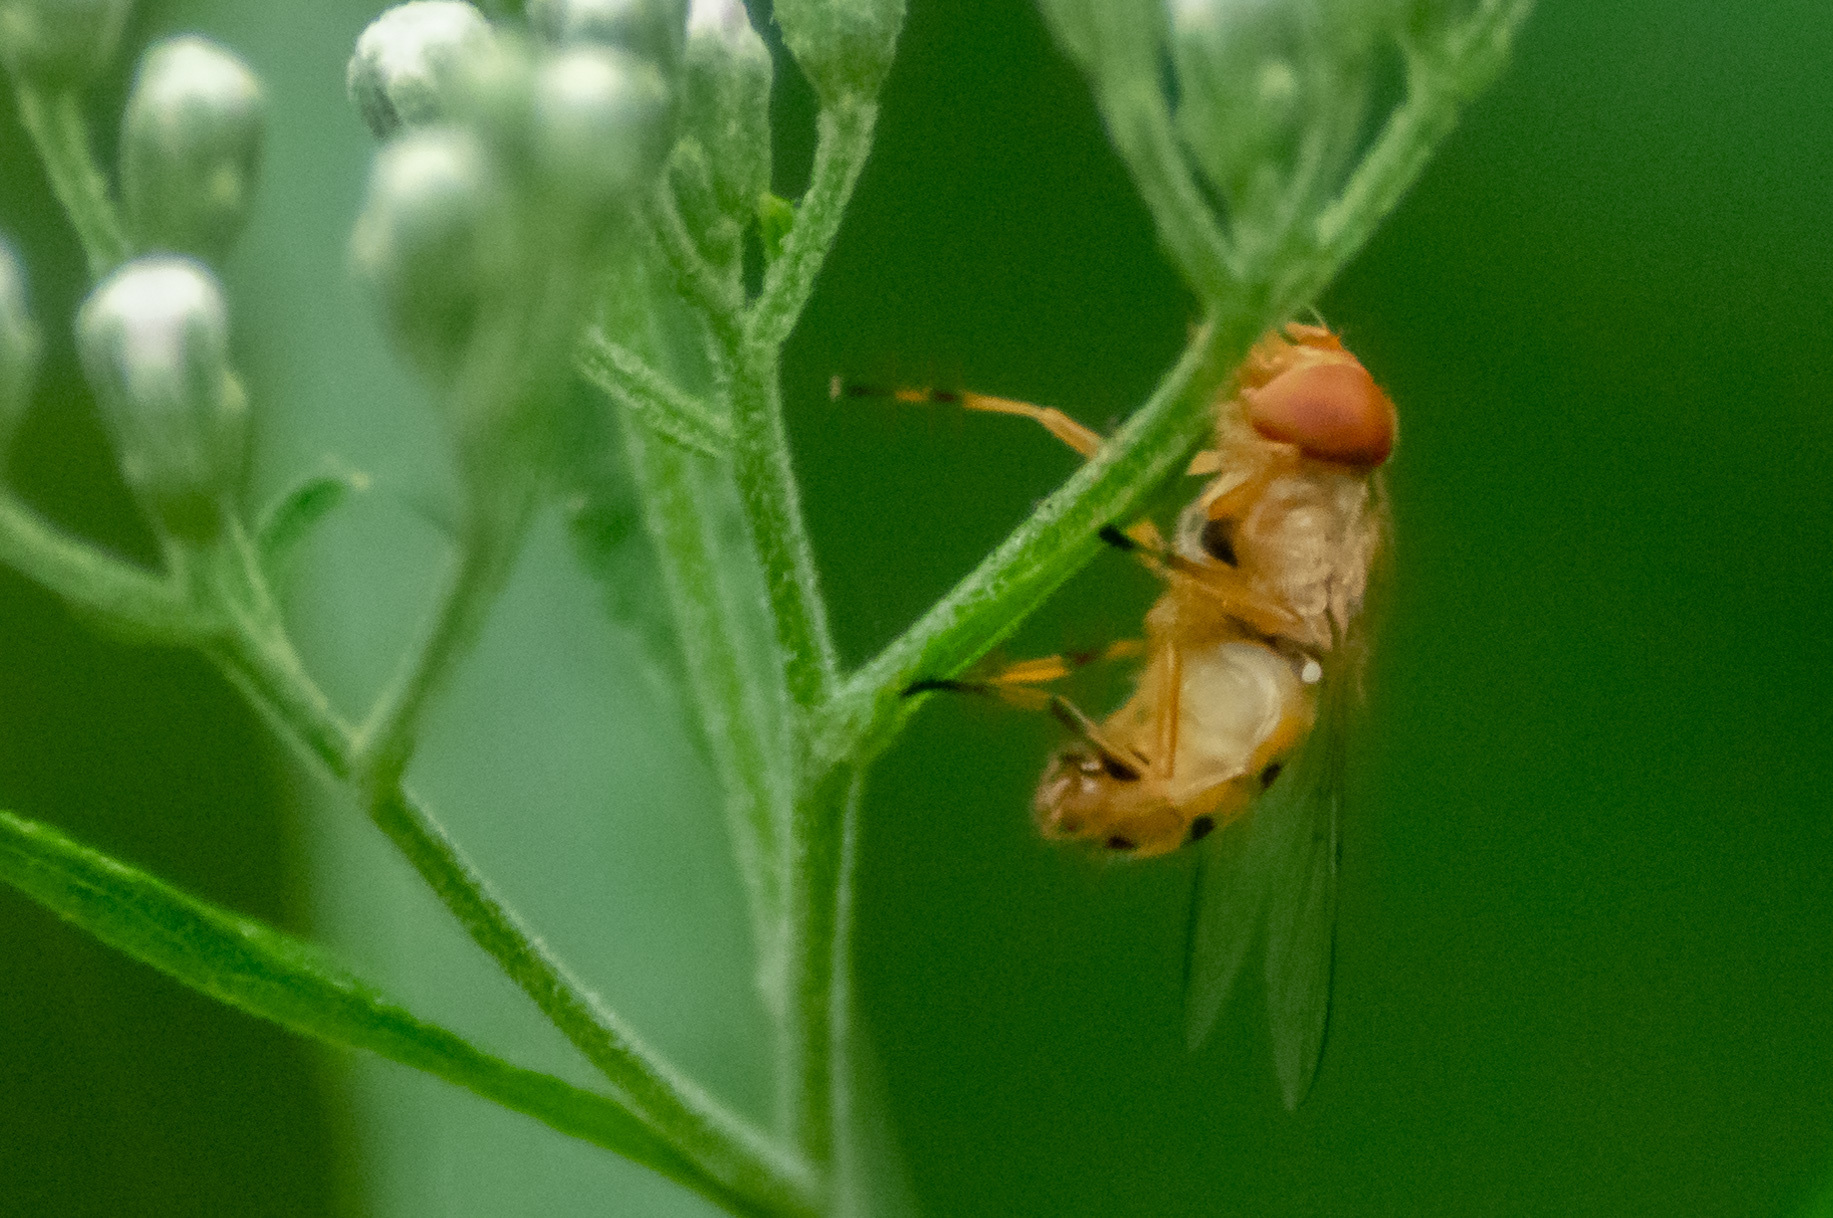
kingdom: Animalia
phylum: Arthropoda
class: Insecta
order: Diptera
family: Syrphidae
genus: Copestylum
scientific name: Copestylum sexmaculatum
